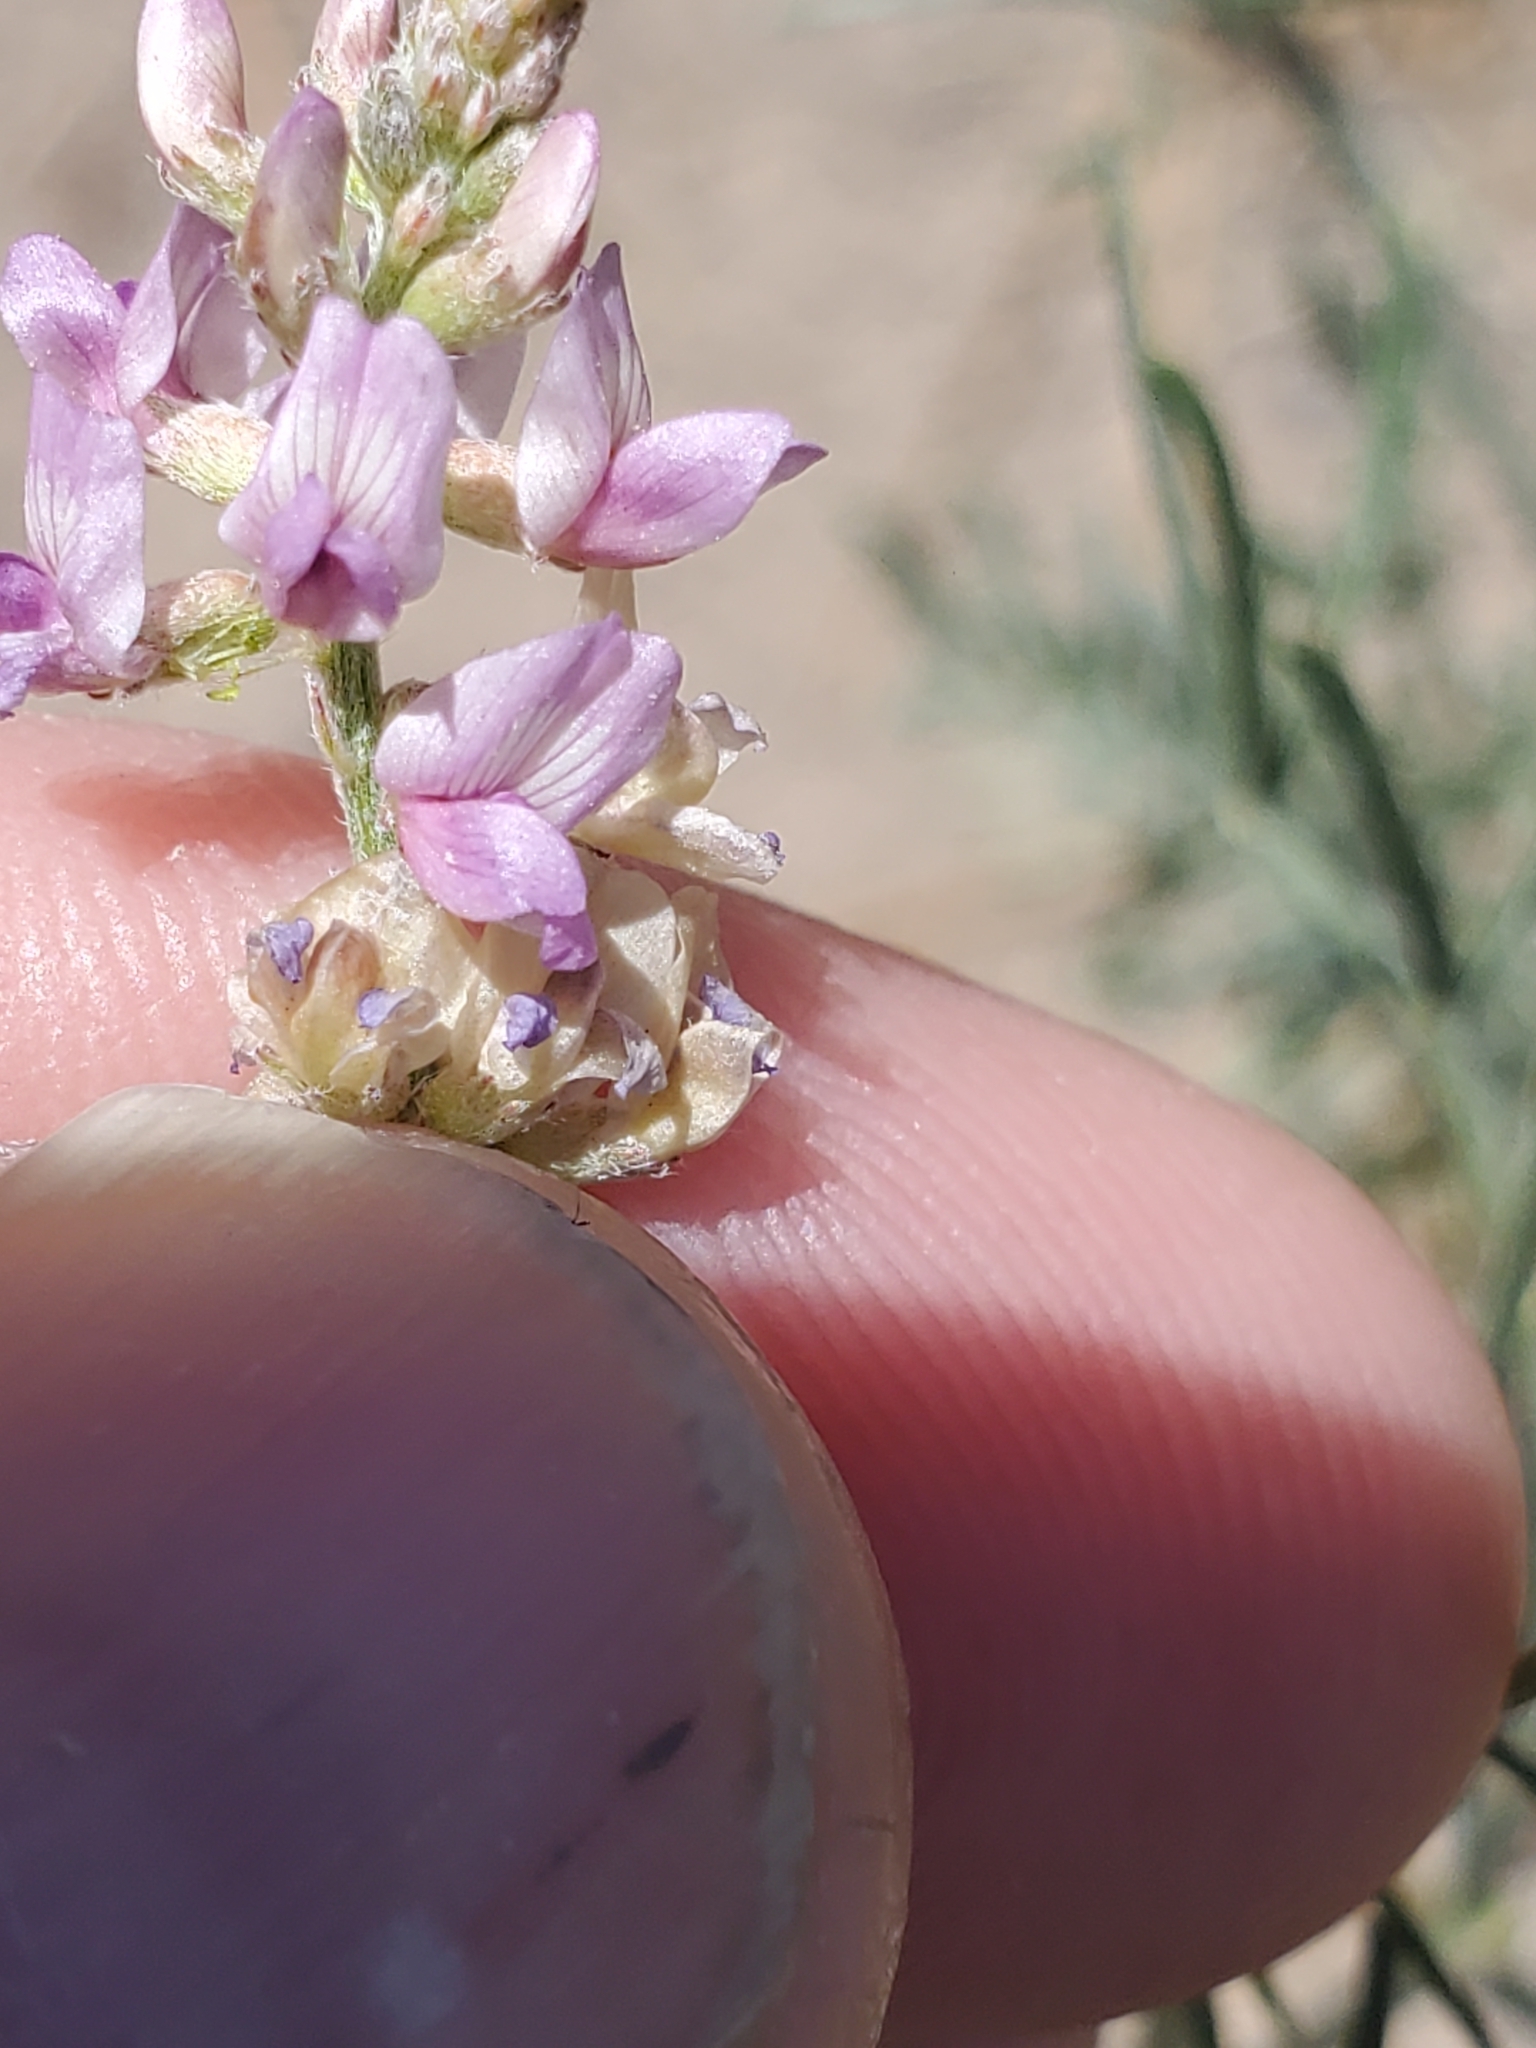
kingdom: Plantae
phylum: Tracheophyta
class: Magnoliopsida
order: Fabales
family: Fabaceae
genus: Astragalus
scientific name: Astragalus gracilis
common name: Slender milk-vetch
